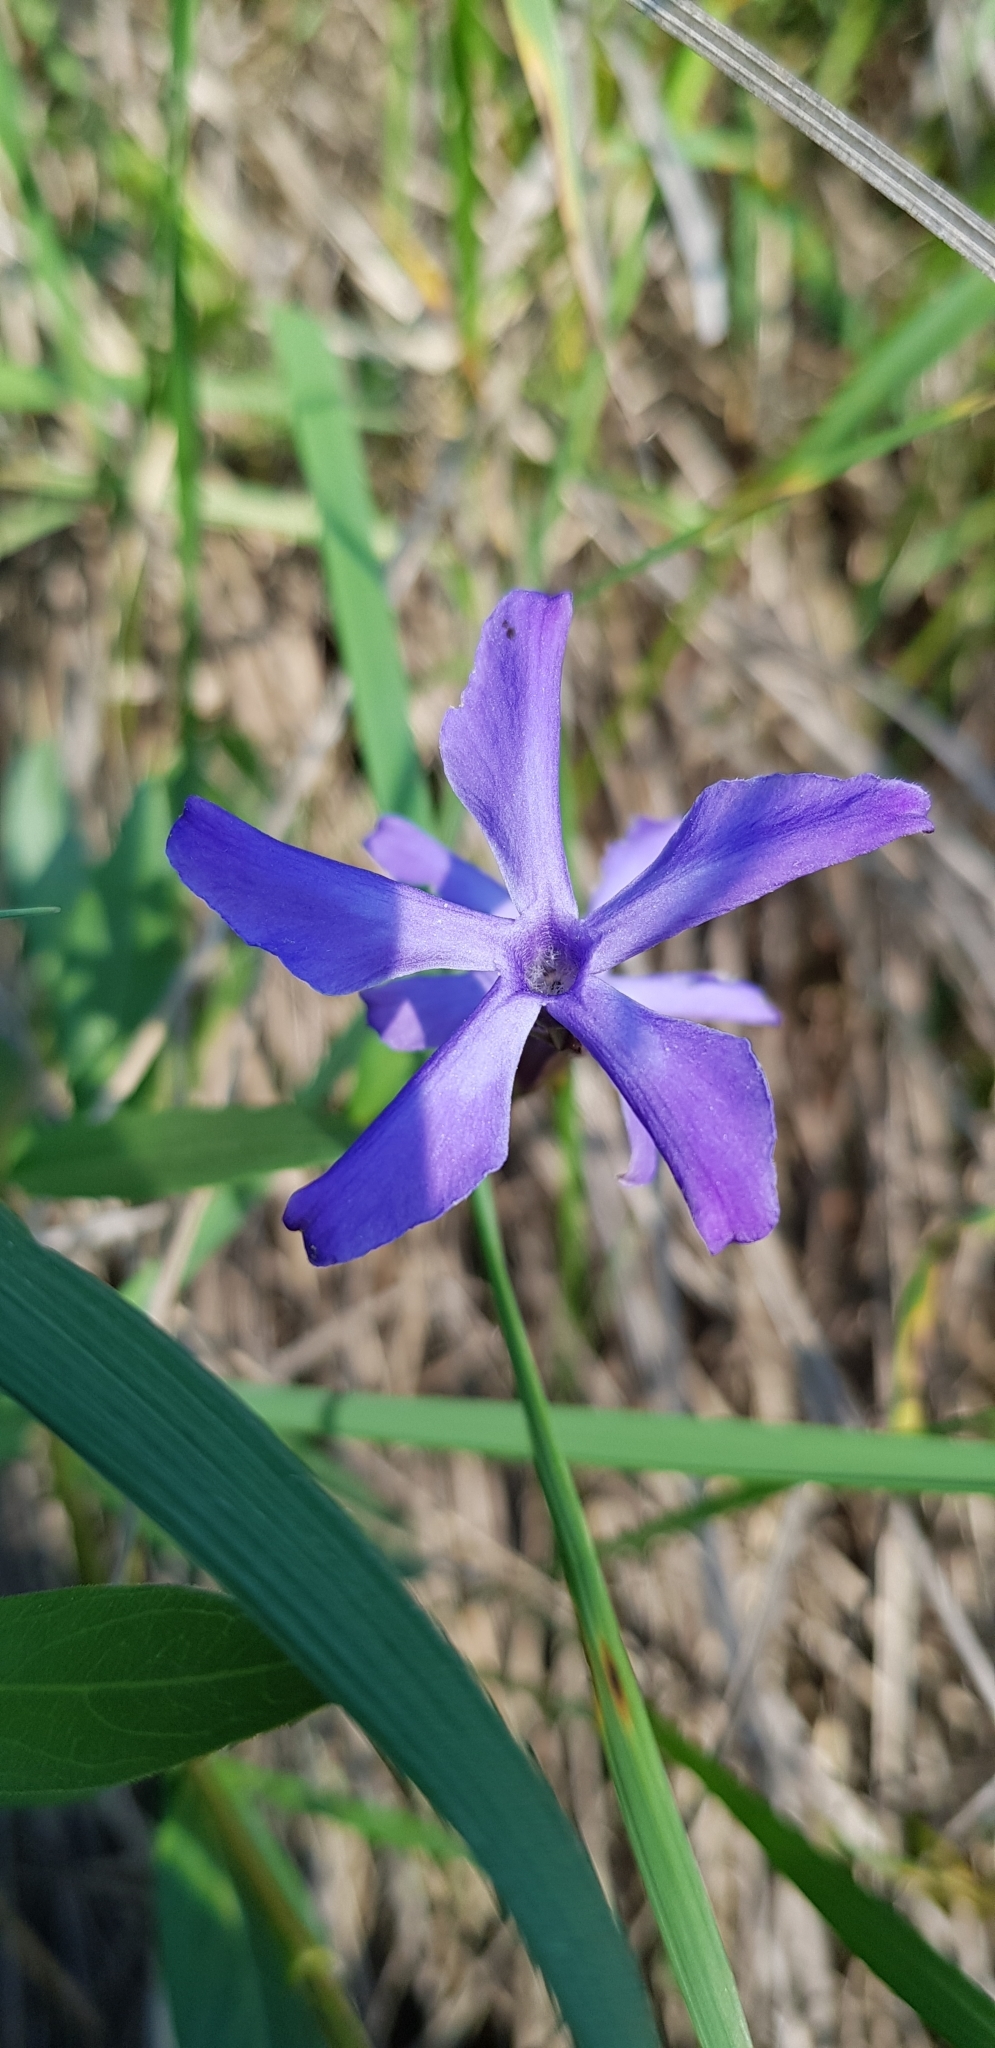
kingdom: Plantae
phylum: Tracheophyta
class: Magnoliopsida
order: Gentianales
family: Apocynaceae
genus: Vinca
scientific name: Vinca herbacea
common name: Herbaceous periwinkle
